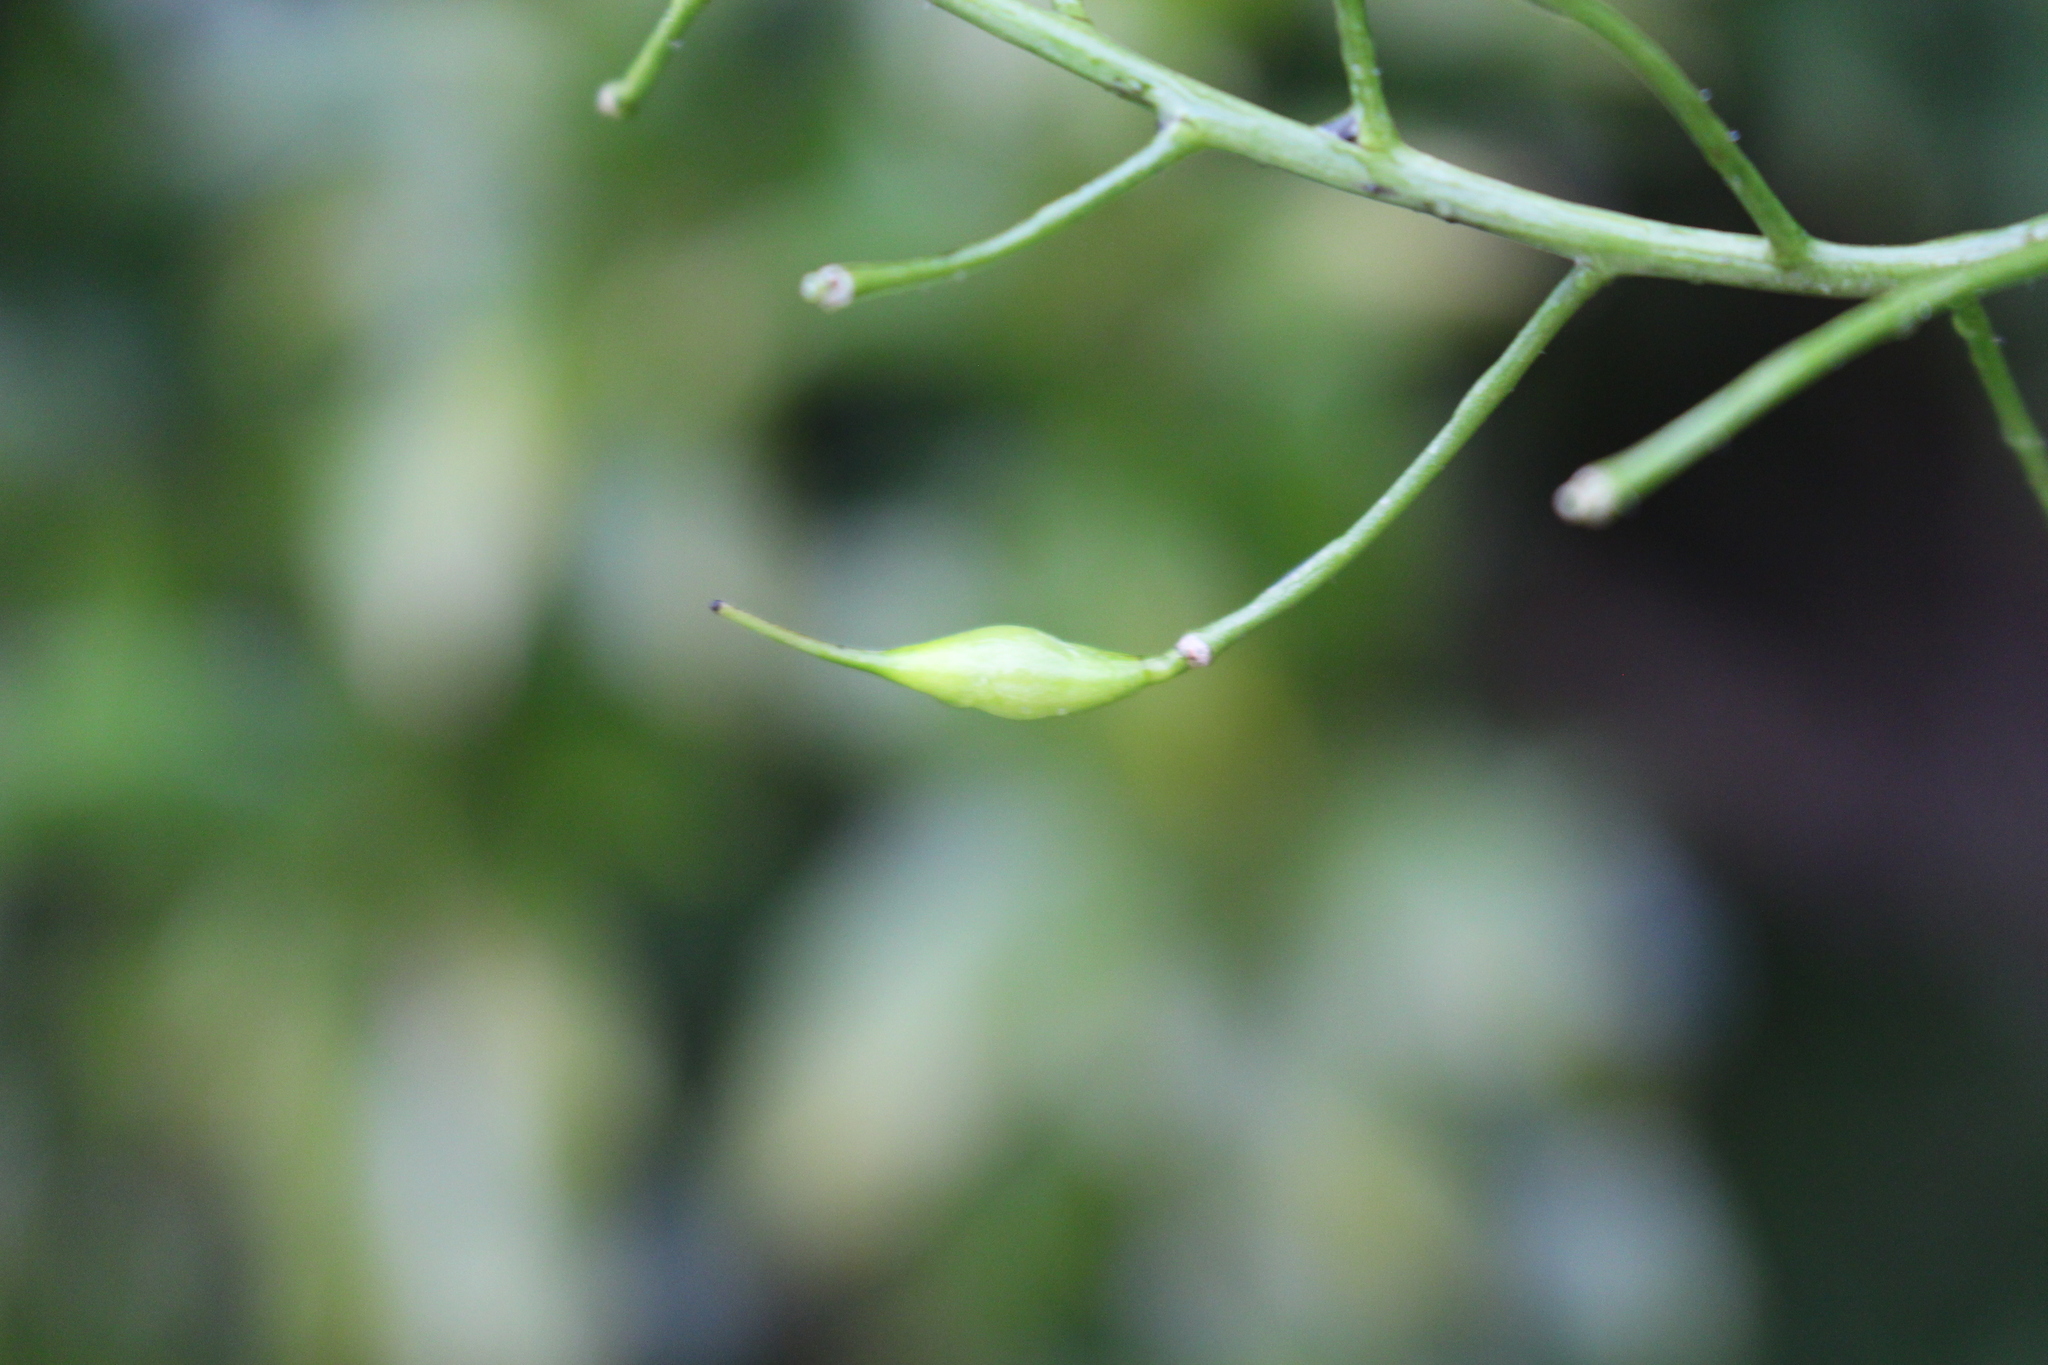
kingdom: Plantae
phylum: Tracheophyta
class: Magnoliopsida
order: Brassicales
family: Brassicaceae
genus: Raphanus
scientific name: Raphanus sativus
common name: Cultivated radish
